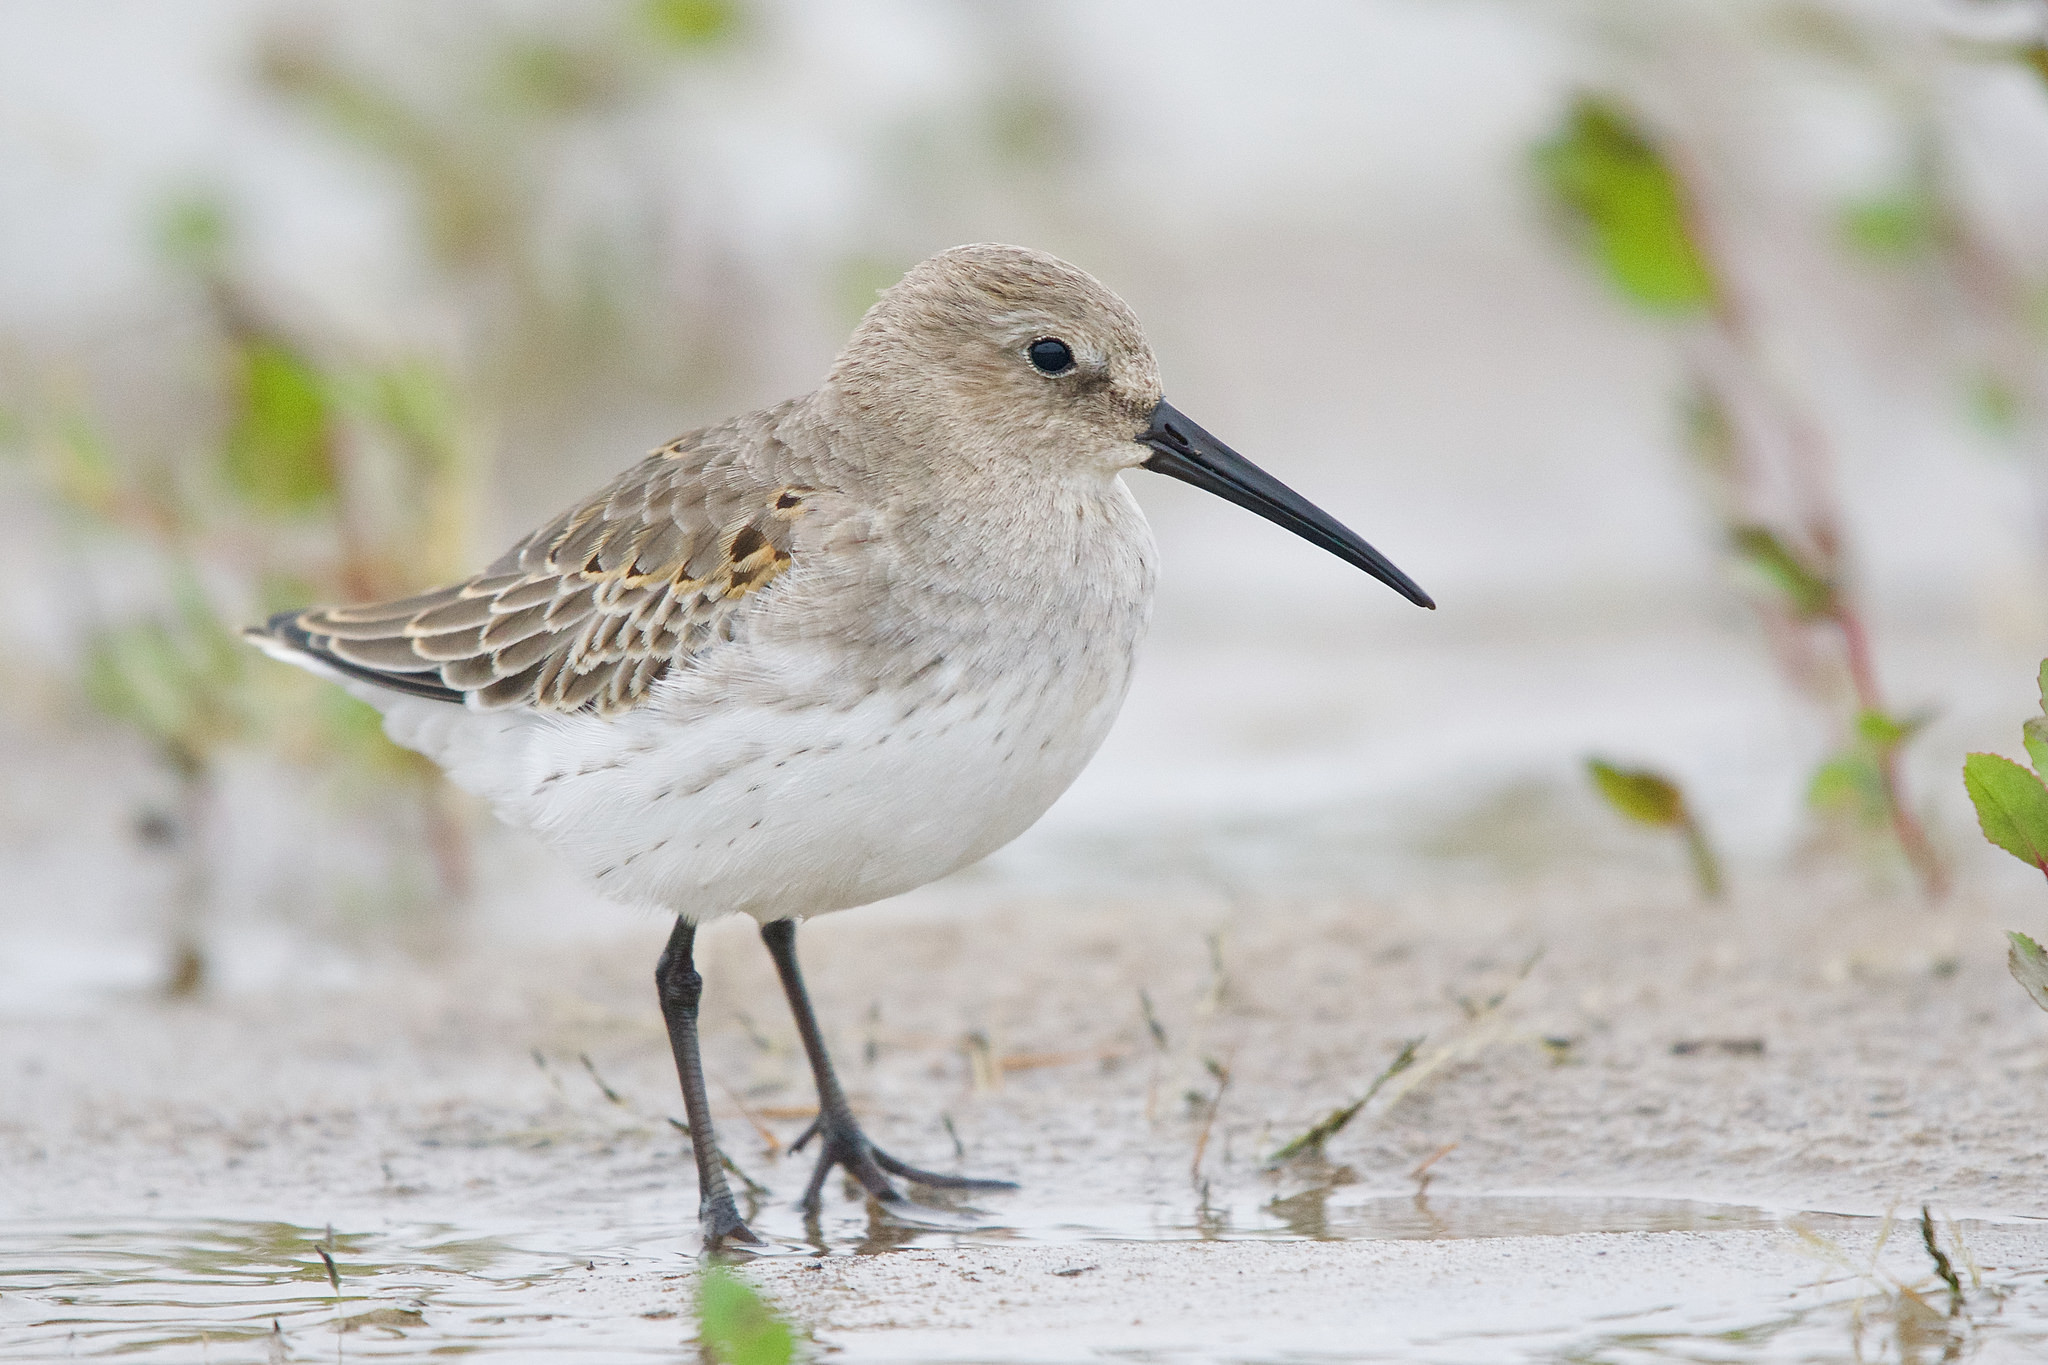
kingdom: Animalia
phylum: Chordata
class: Aves
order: Charadriiformes
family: Scolopacidae
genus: Calidris
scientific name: Calidris alpina
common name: Dunlin
